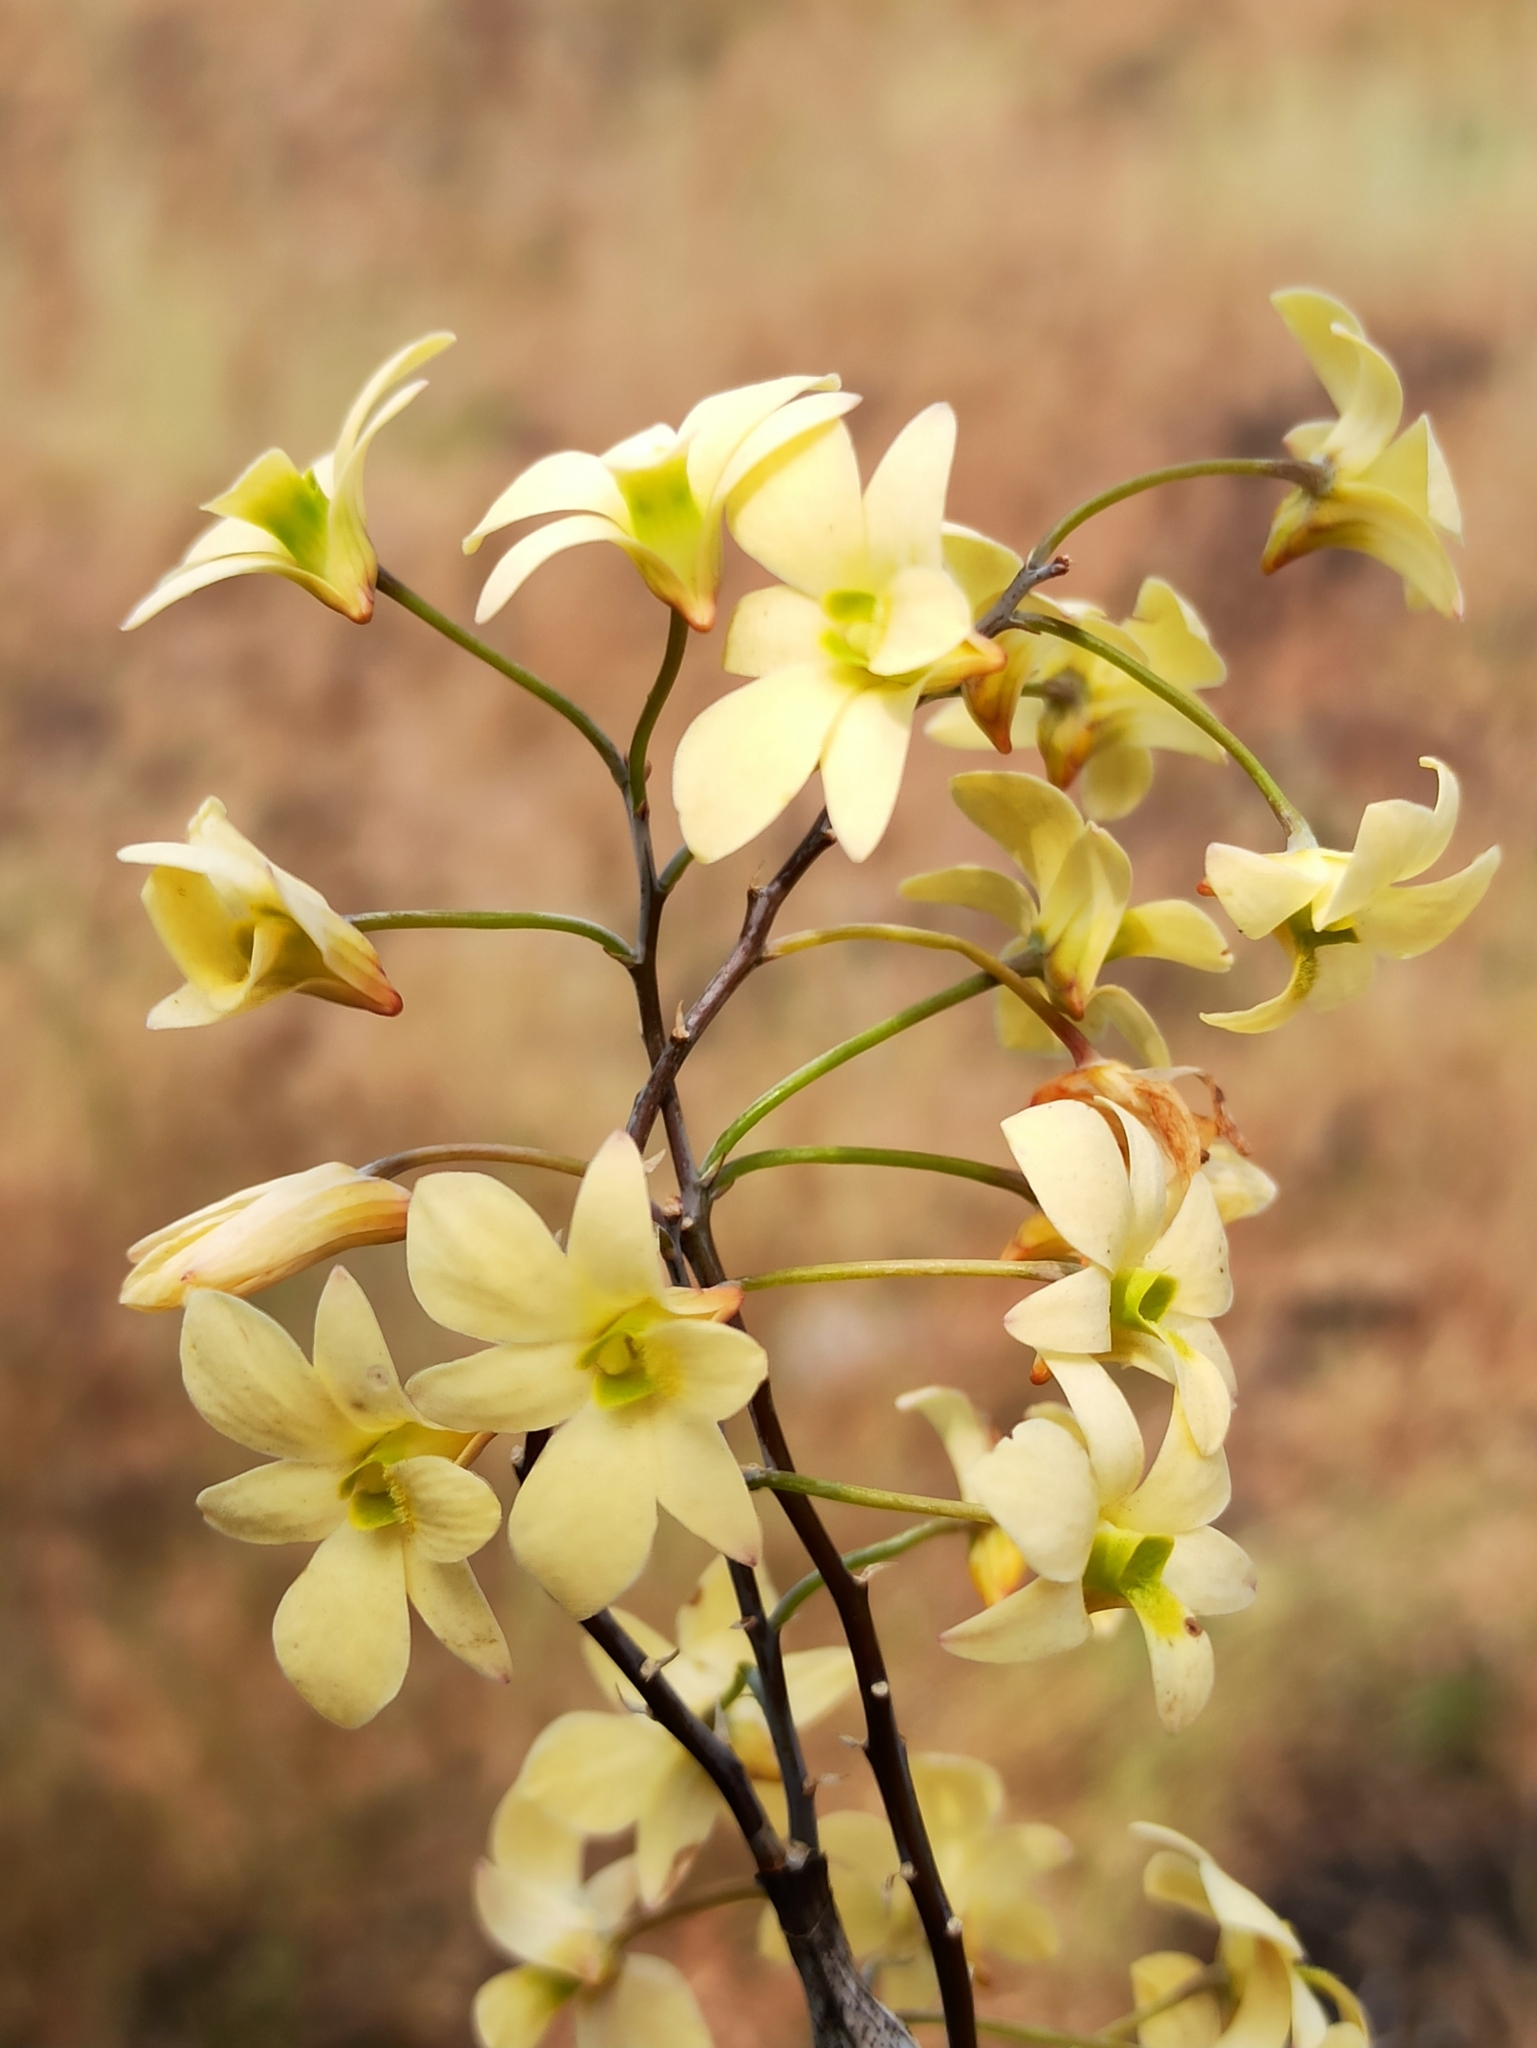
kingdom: Plantae
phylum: Tracheophyta
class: Liliopsida
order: Asparagales
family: Orchidaceae
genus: Dendrobium
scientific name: Dendrobium ovatum
